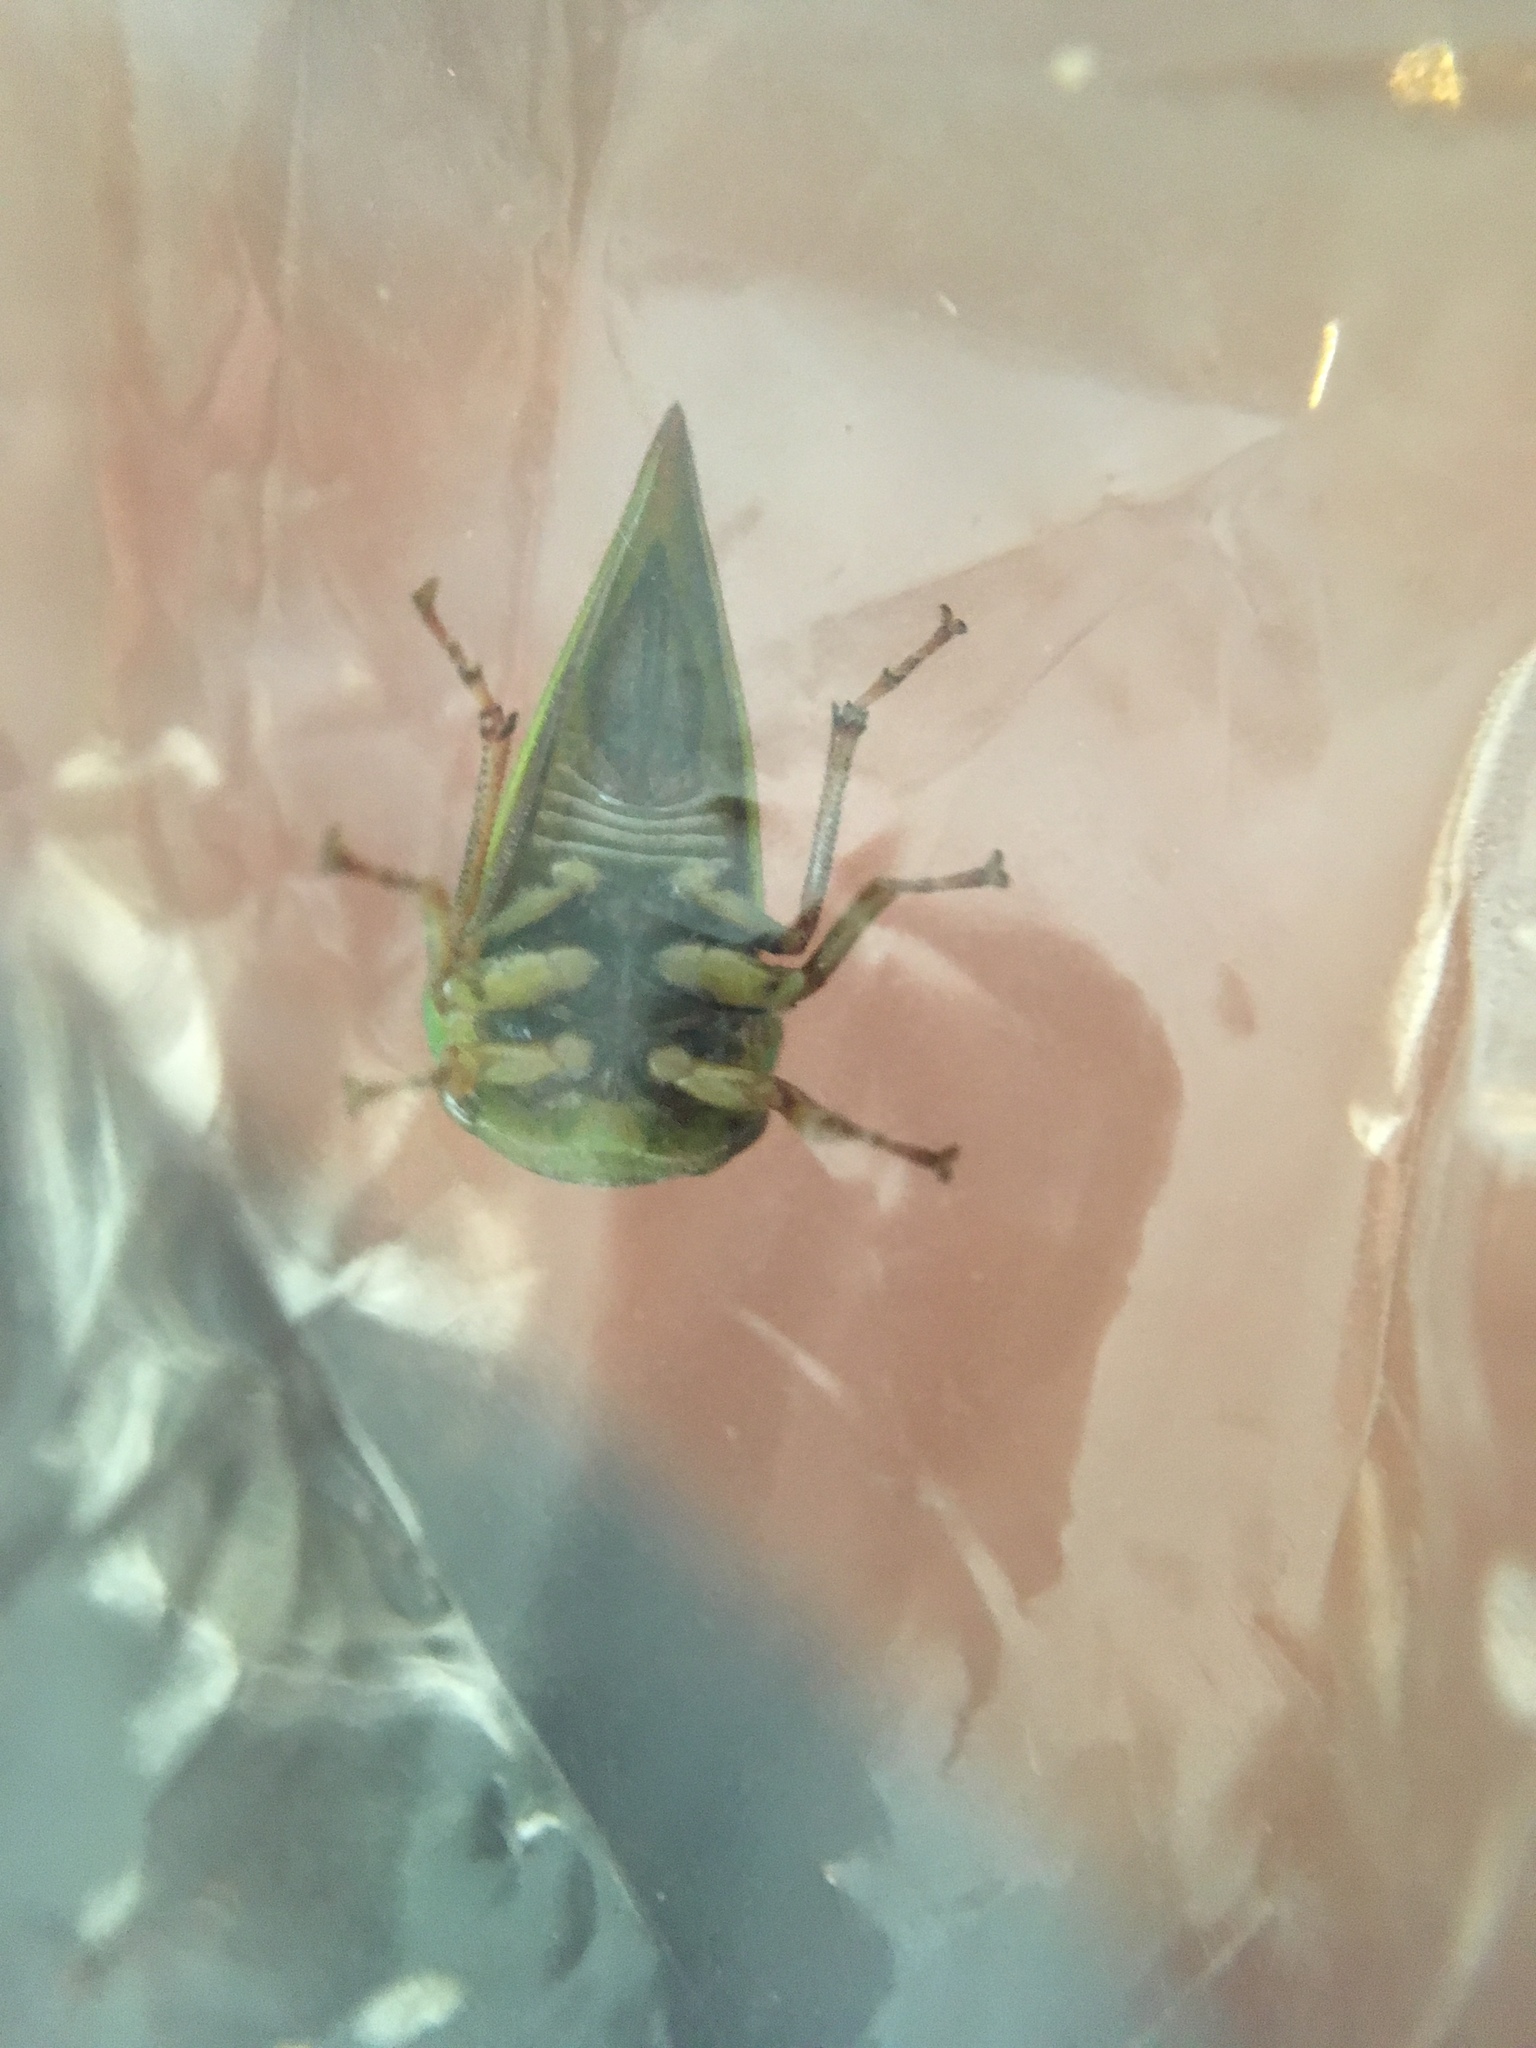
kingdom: Animalia
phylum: Arthropoda
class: Insecta
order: Hemiptera
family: Membracidae
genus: Hebetica
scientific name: Hebetica
